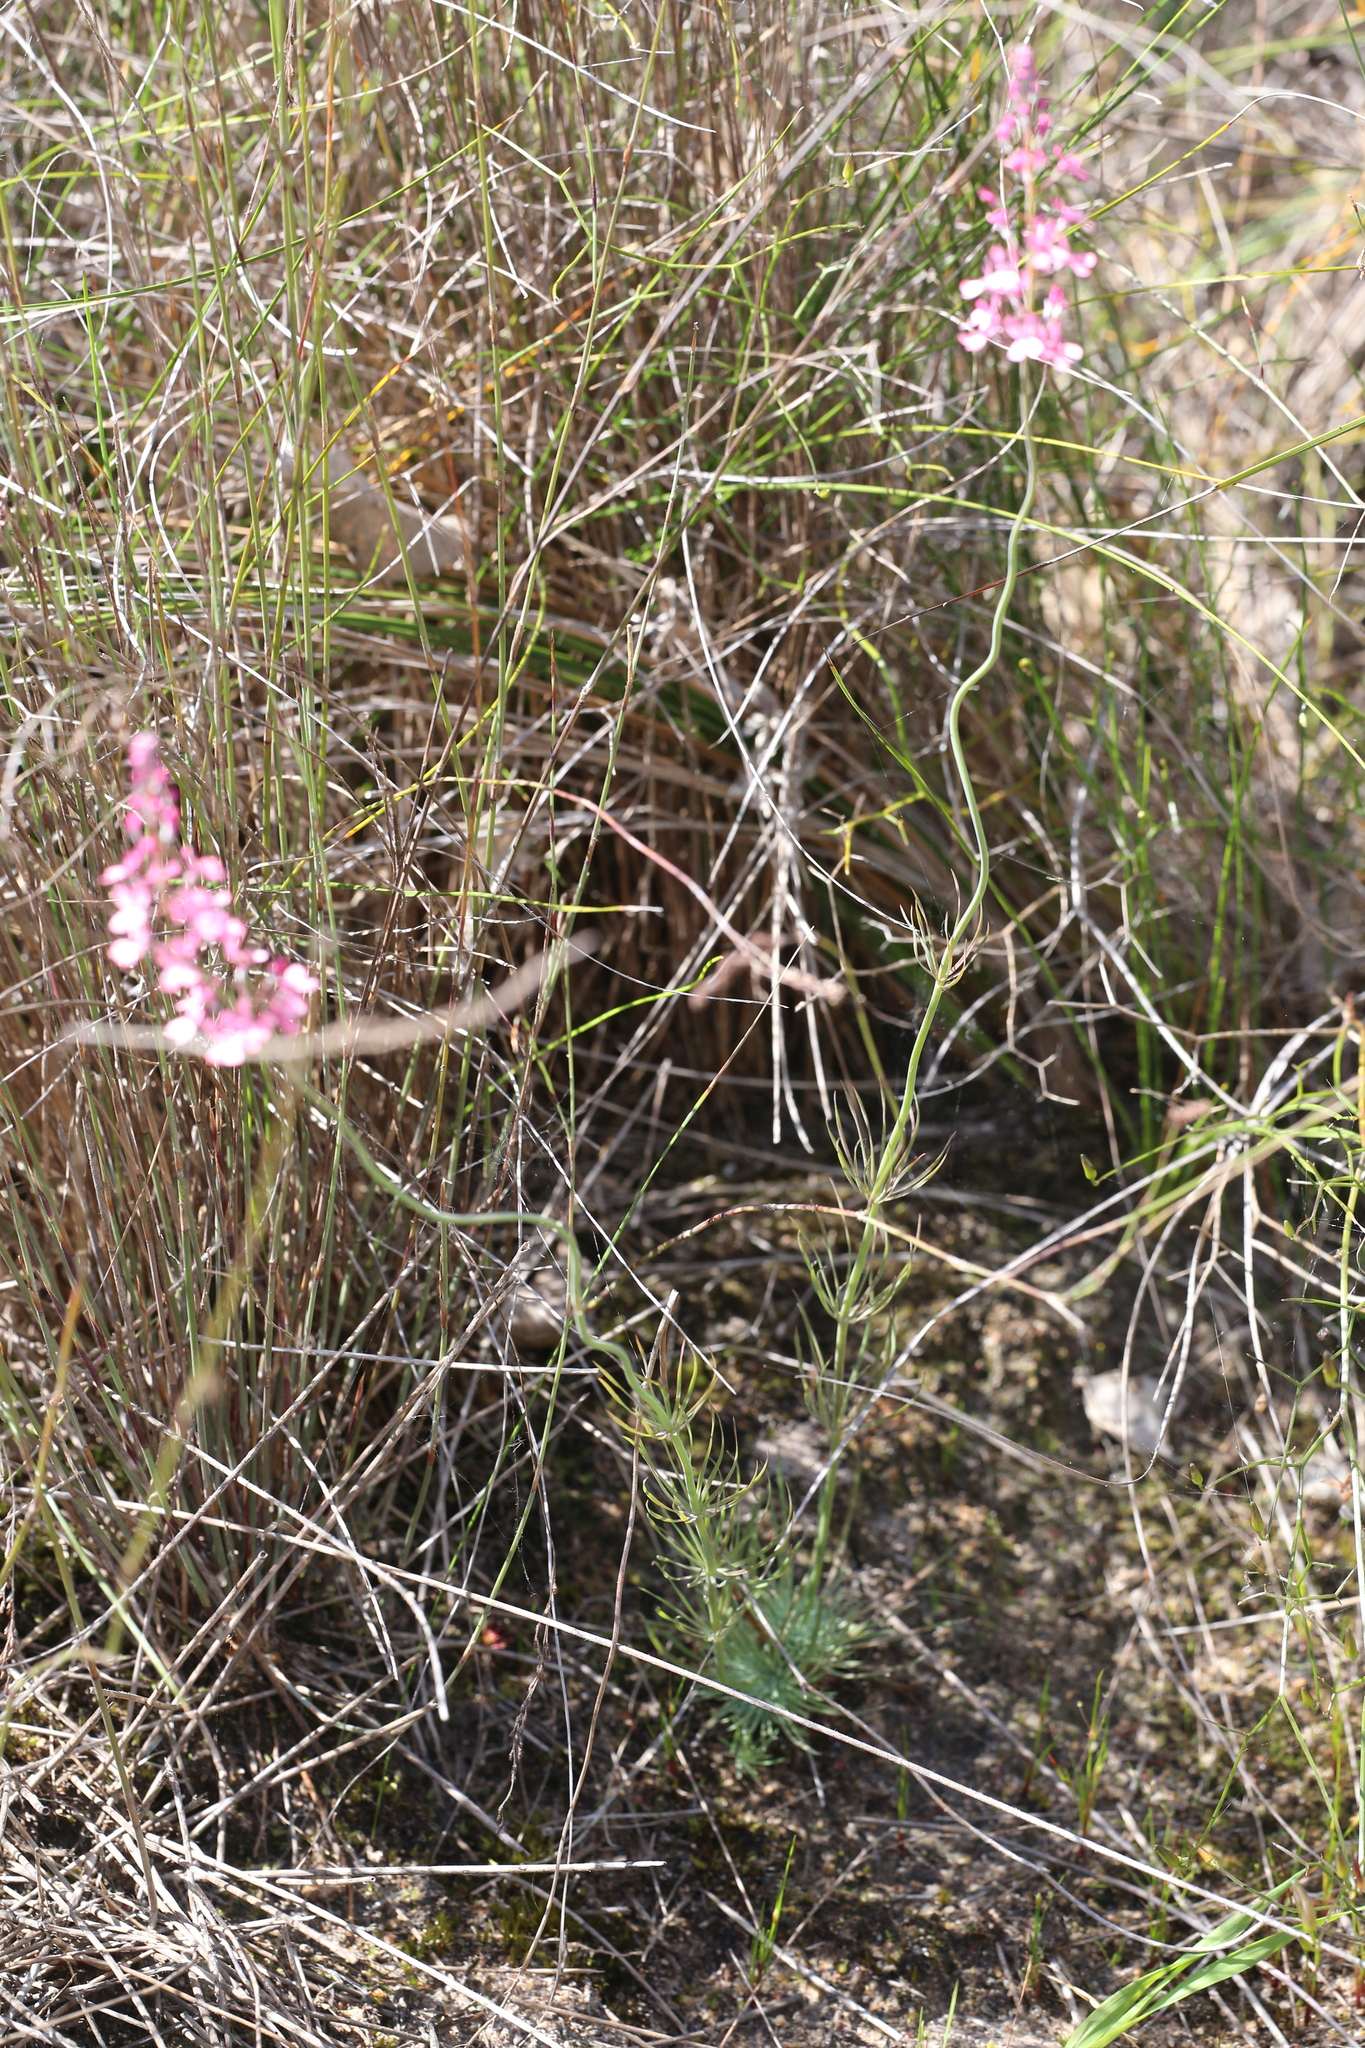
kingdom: Plantae
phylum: Tracheophyta
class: Magnoliopsida
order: Asterales
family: Stylidiaceae
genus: Stylidium
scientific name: Stylidium brunonianum
